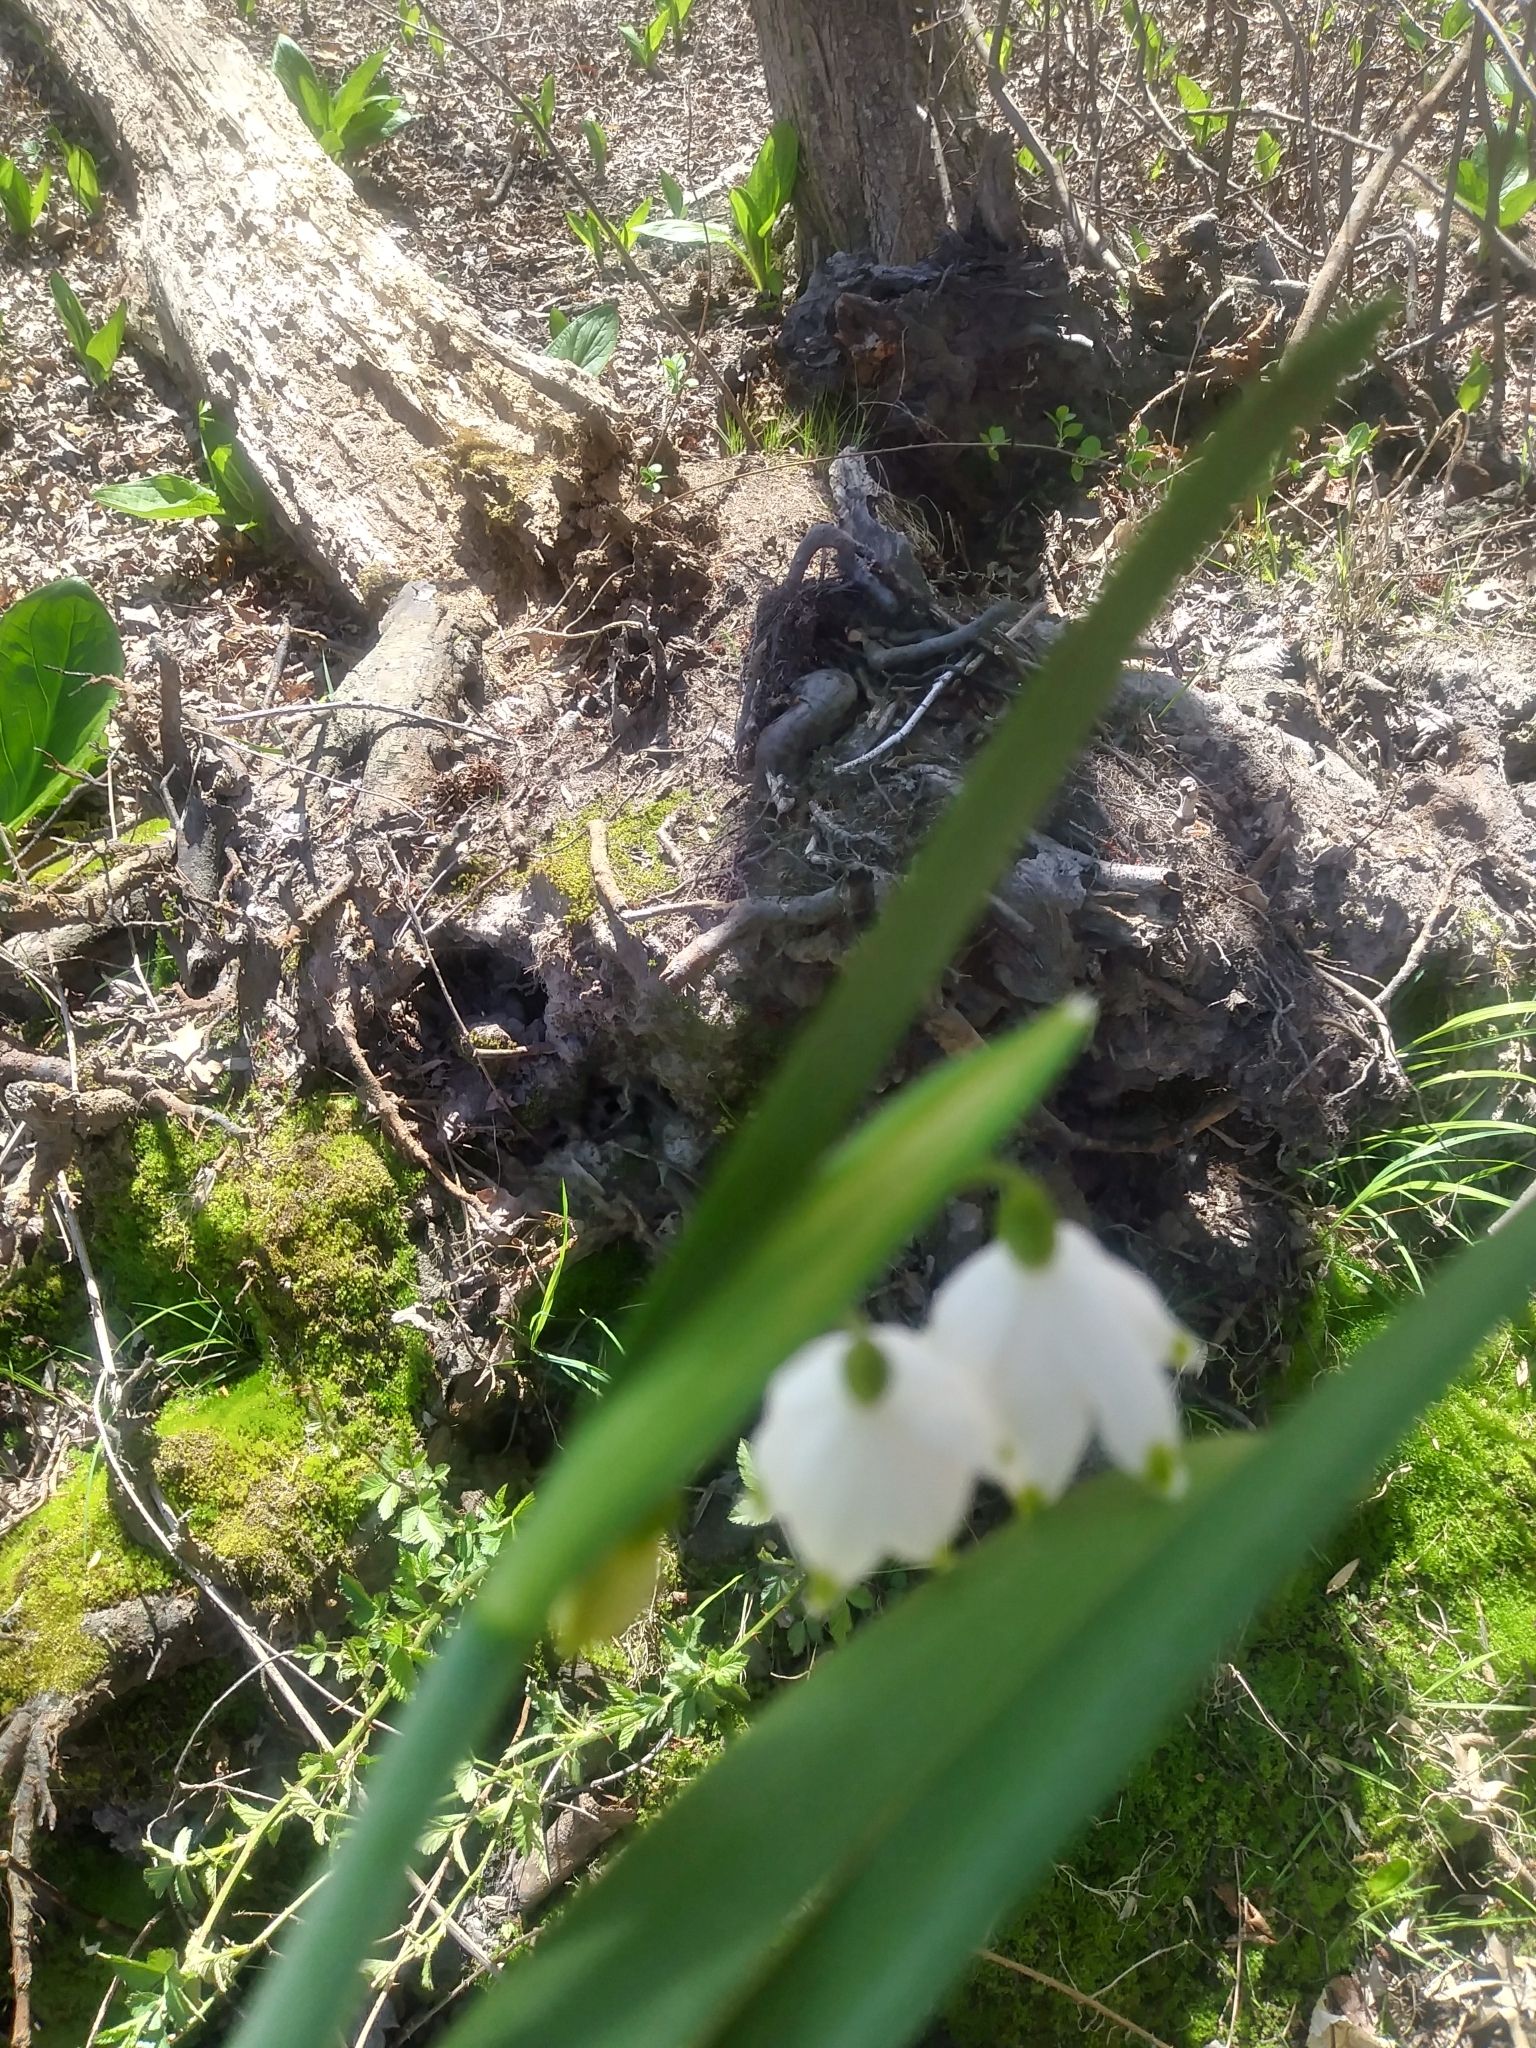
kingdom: Plantae
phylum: Tracheophyta
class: Liliopsida
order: Asparagales
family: Amaryllidaceae
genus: Leucojum
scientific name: Leucojum aestivum
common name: Summer snowflake
